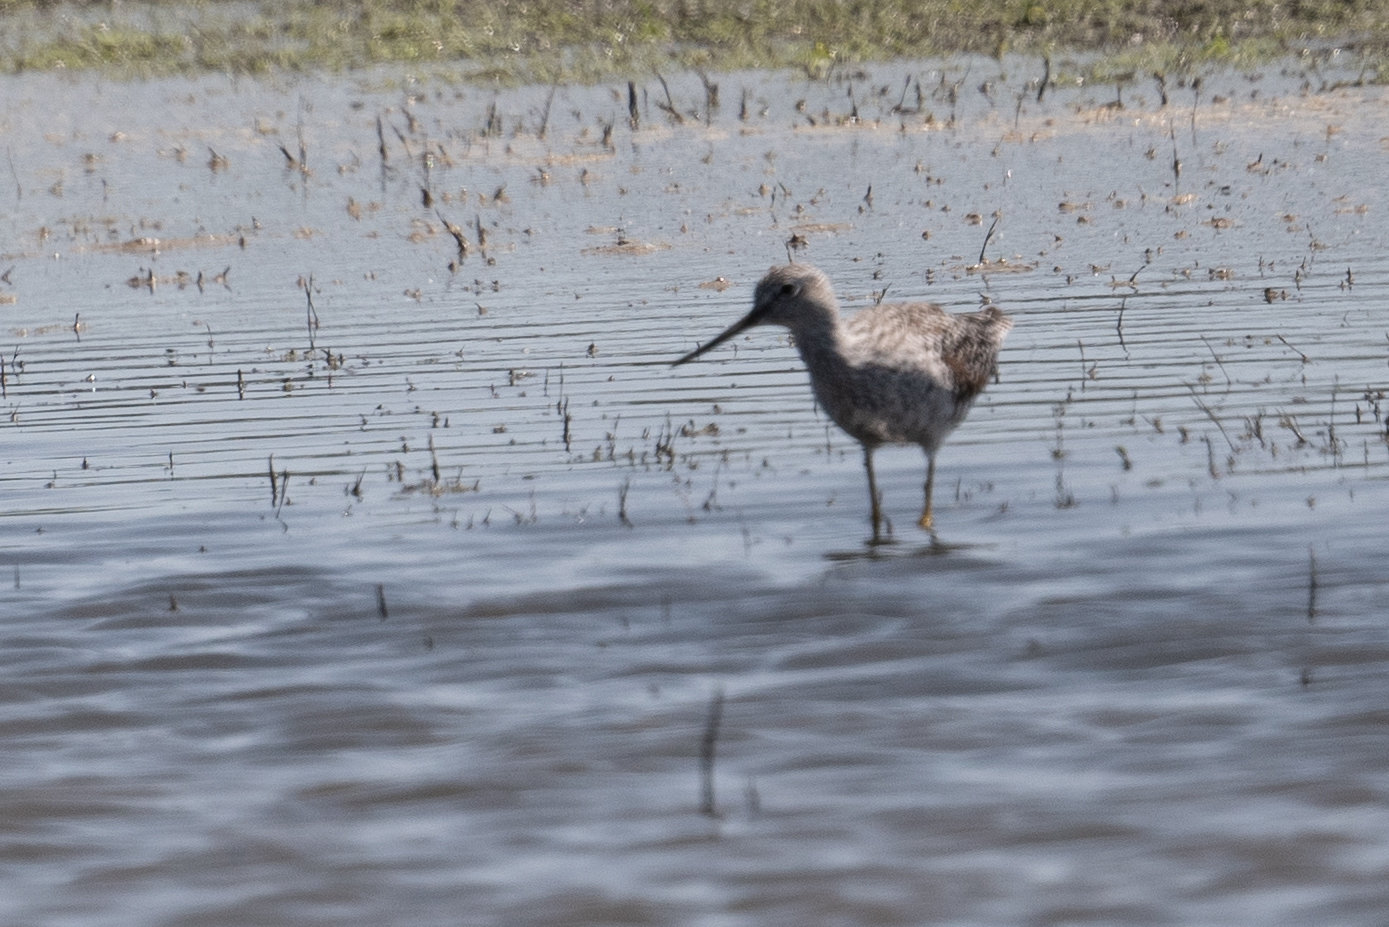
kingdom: Animalia
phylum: Chordata
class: Aves
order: Charadriiformes
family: Scolopacidae
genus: Tringa
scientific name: Tringa melanoleuca
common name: Greater yellowlegs
